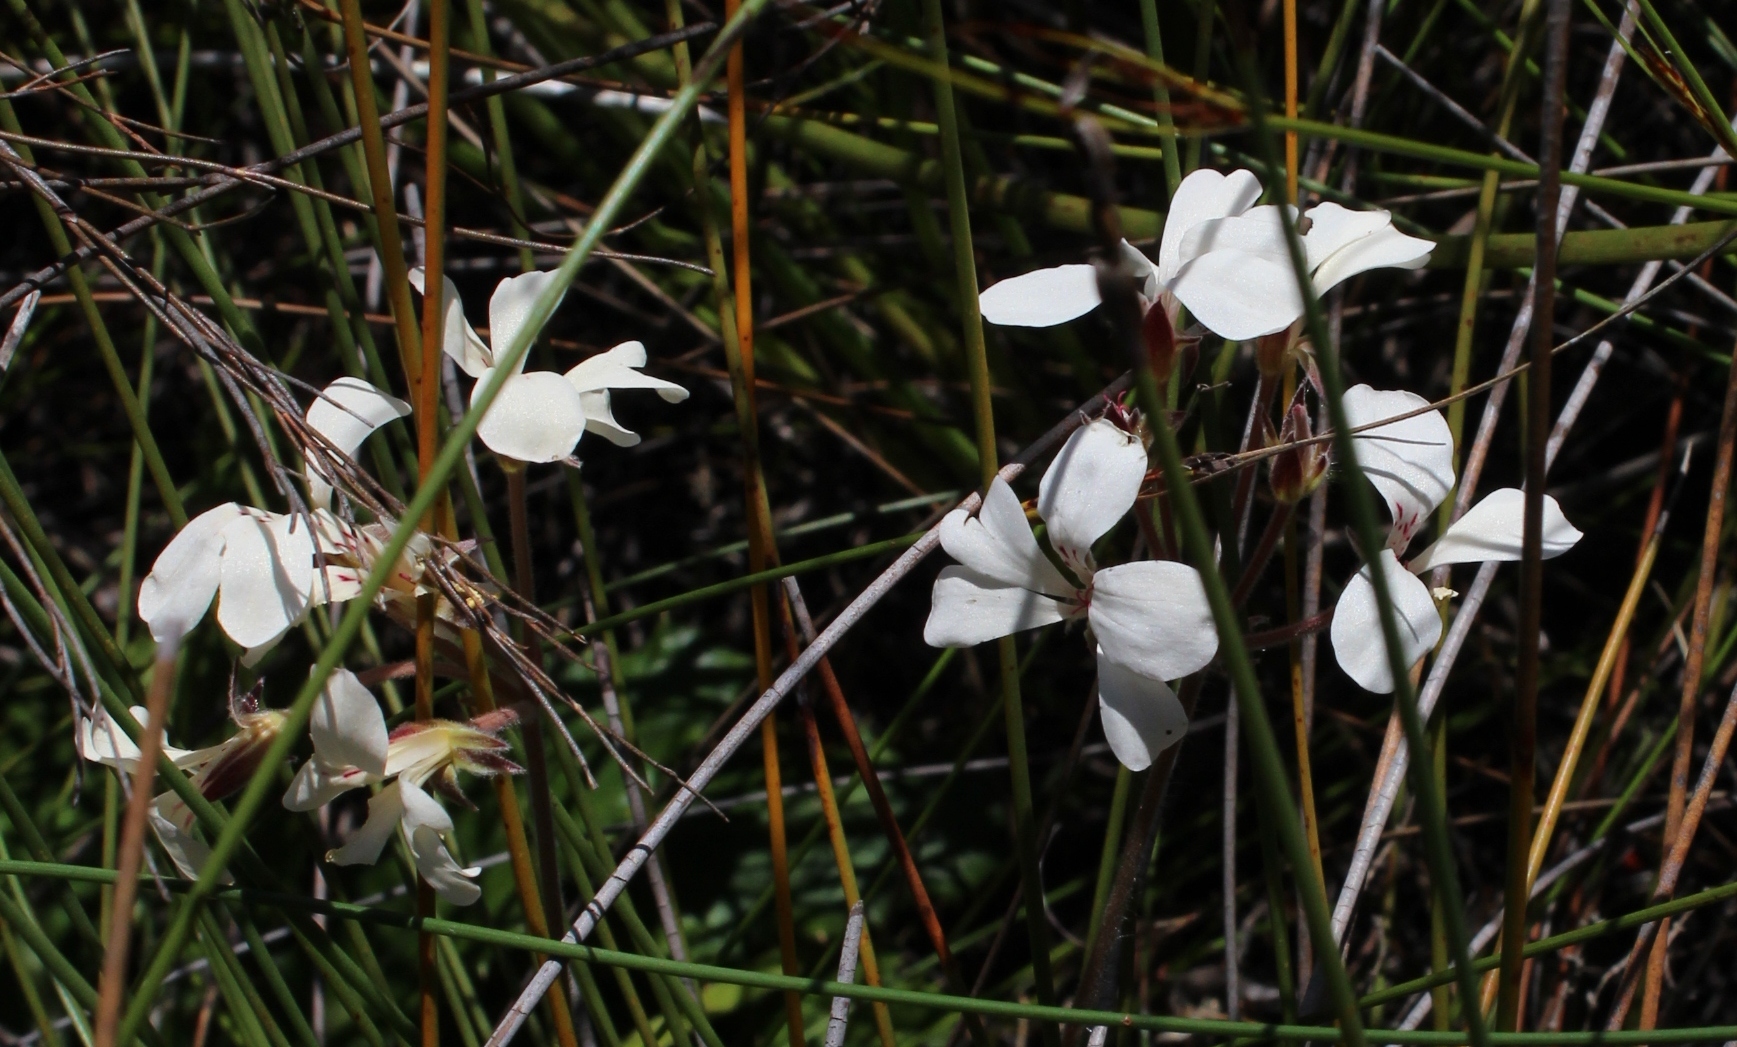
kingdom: Plantae
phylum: Tracheophyta
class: Magnoliopsida
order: Geraniales
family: Geraniaceae
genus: Pelargonium
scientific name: Pelargonium pinnatum
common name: Pinnated pelargonium
